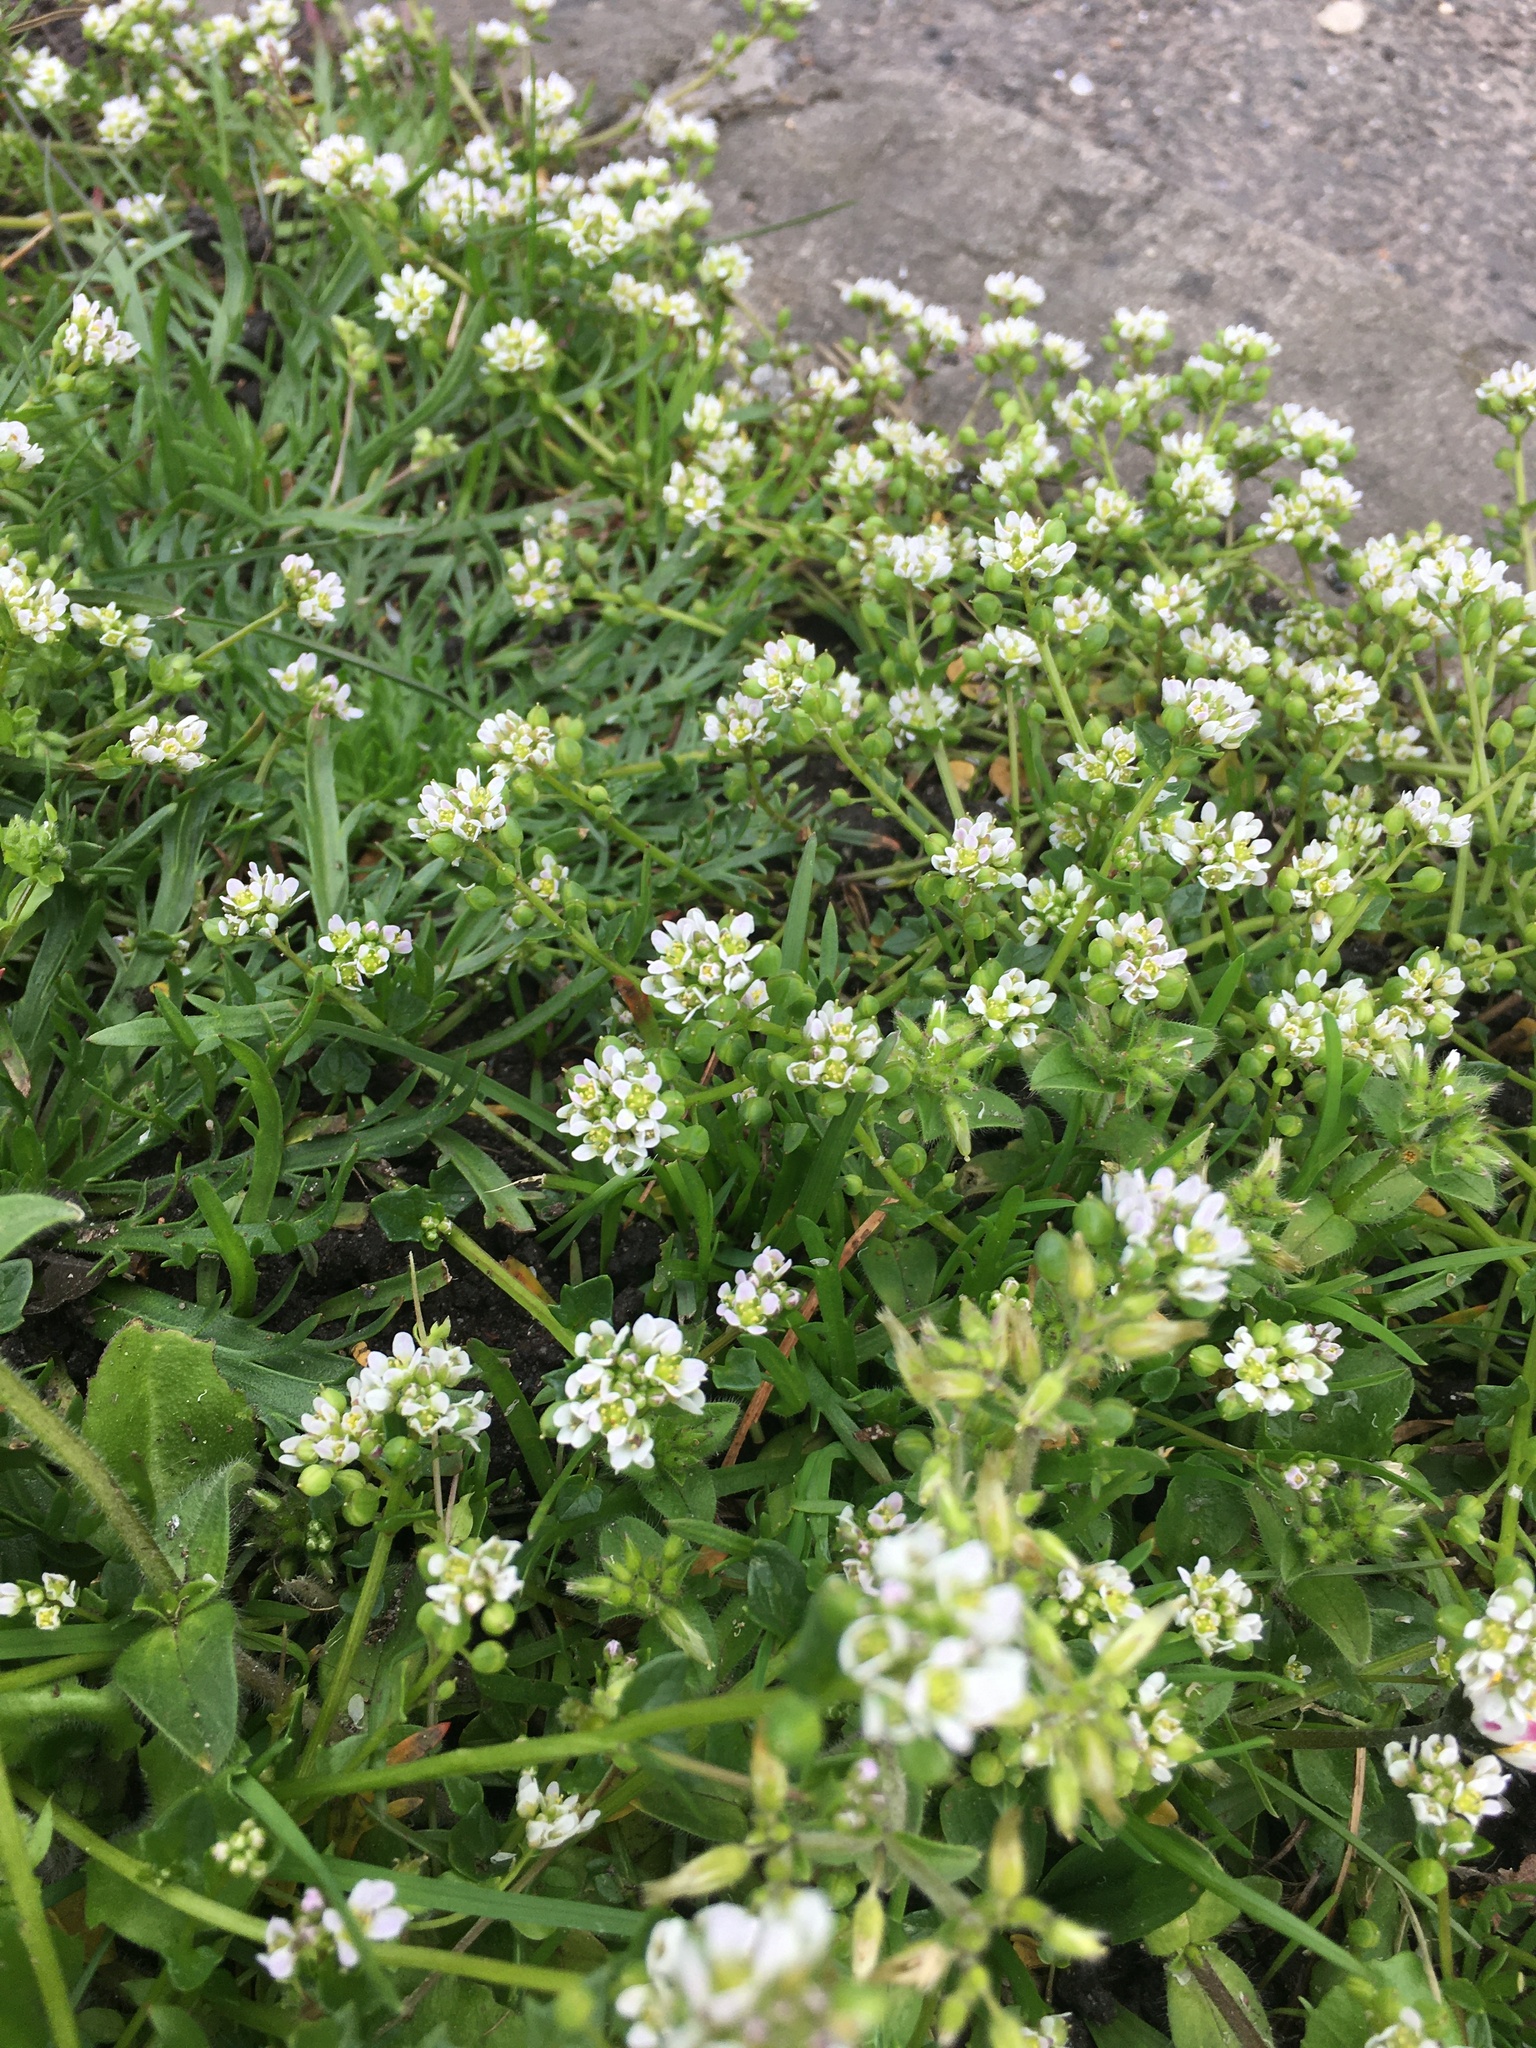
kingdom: Plantae
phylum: Tracheophyta
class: Magnoliopsida
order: Brassicales
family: Brassicaceae
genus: Cochlearia
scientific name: Cochlearia danica
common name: Early scurvygrass
